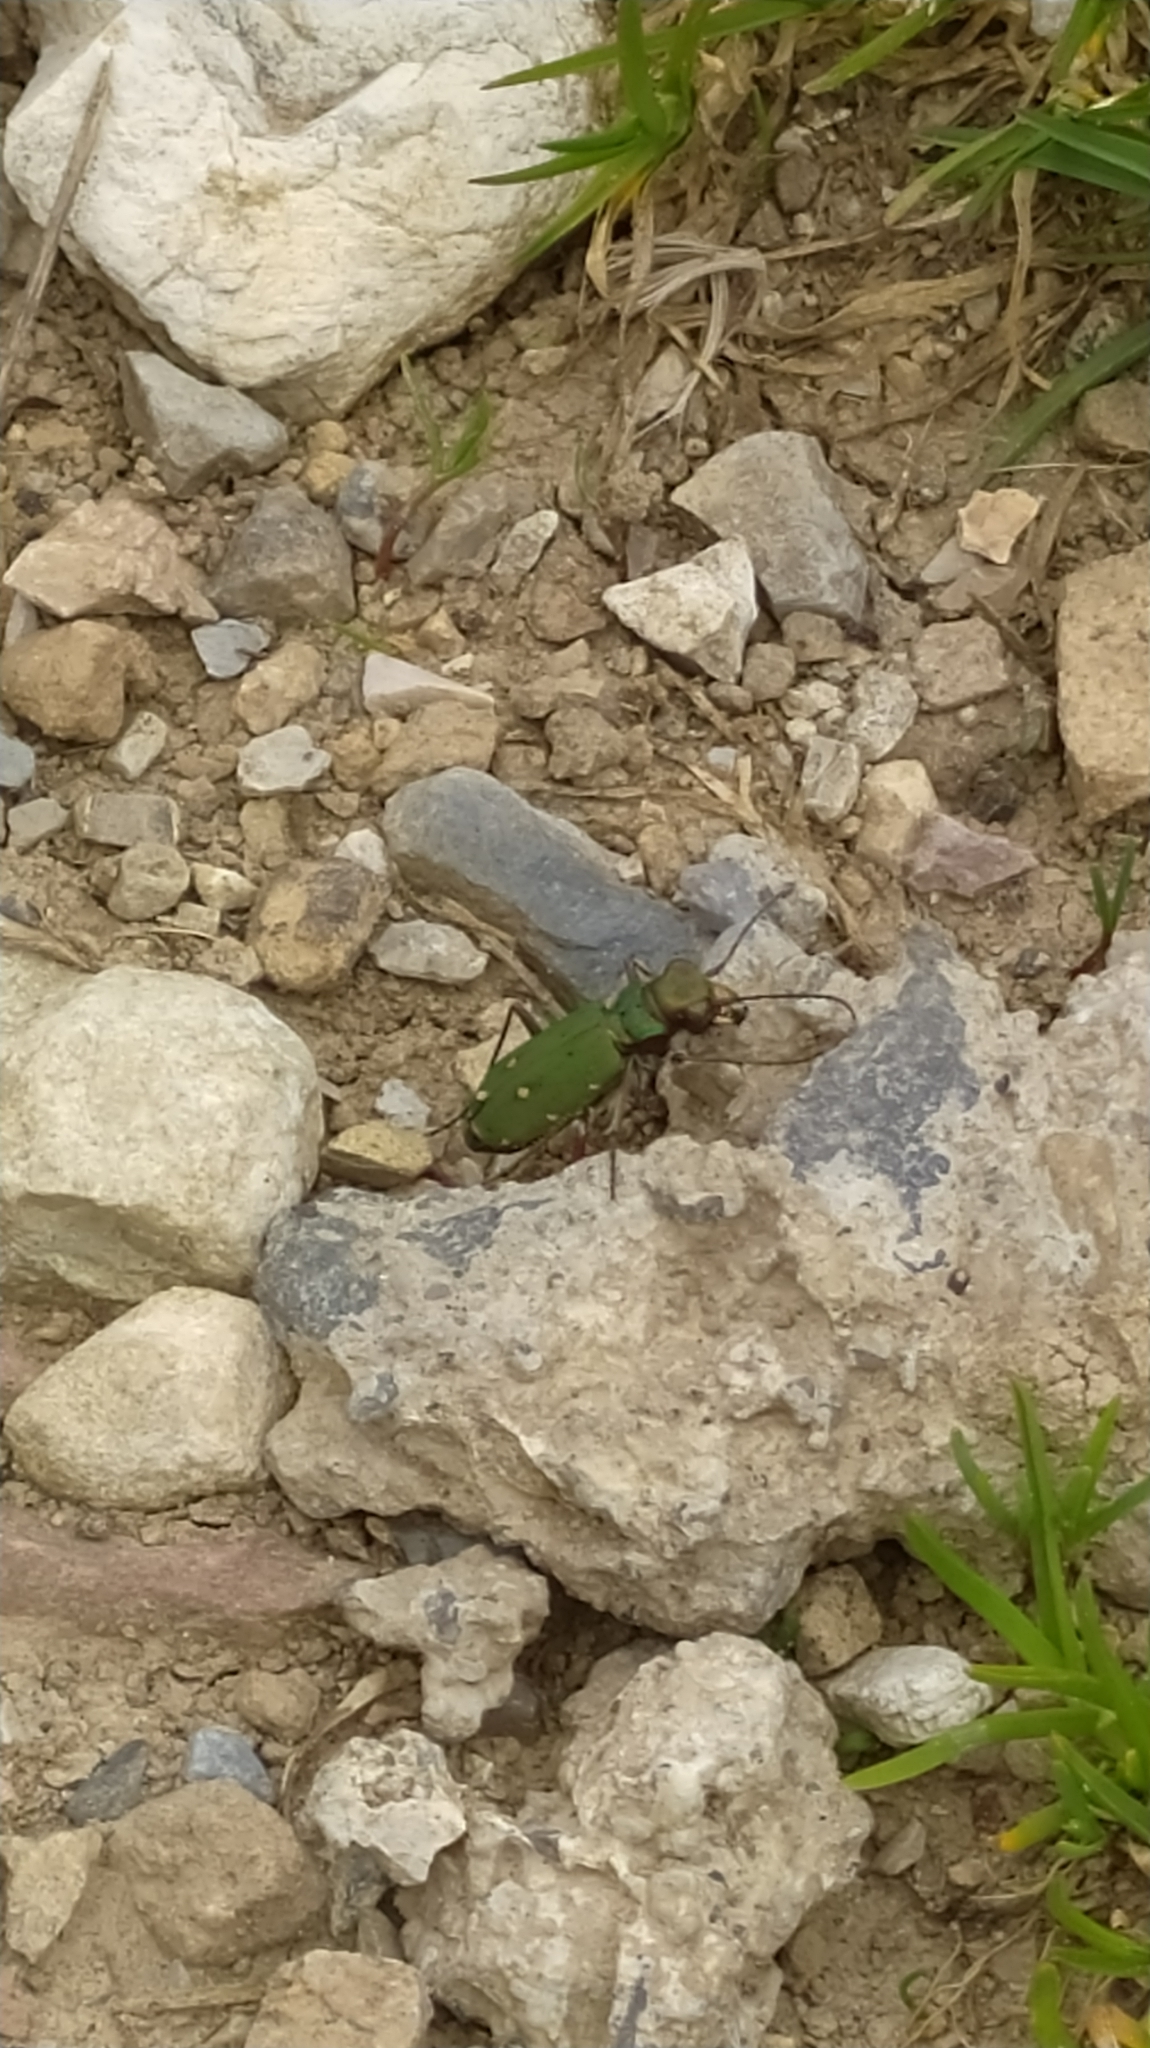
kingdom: Animalia
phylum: Arthropoda
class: Insecta
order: Coleoptera
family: Carabidae
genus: Cicindela
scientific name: Cicindela campestris
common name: Common tiger beetle
